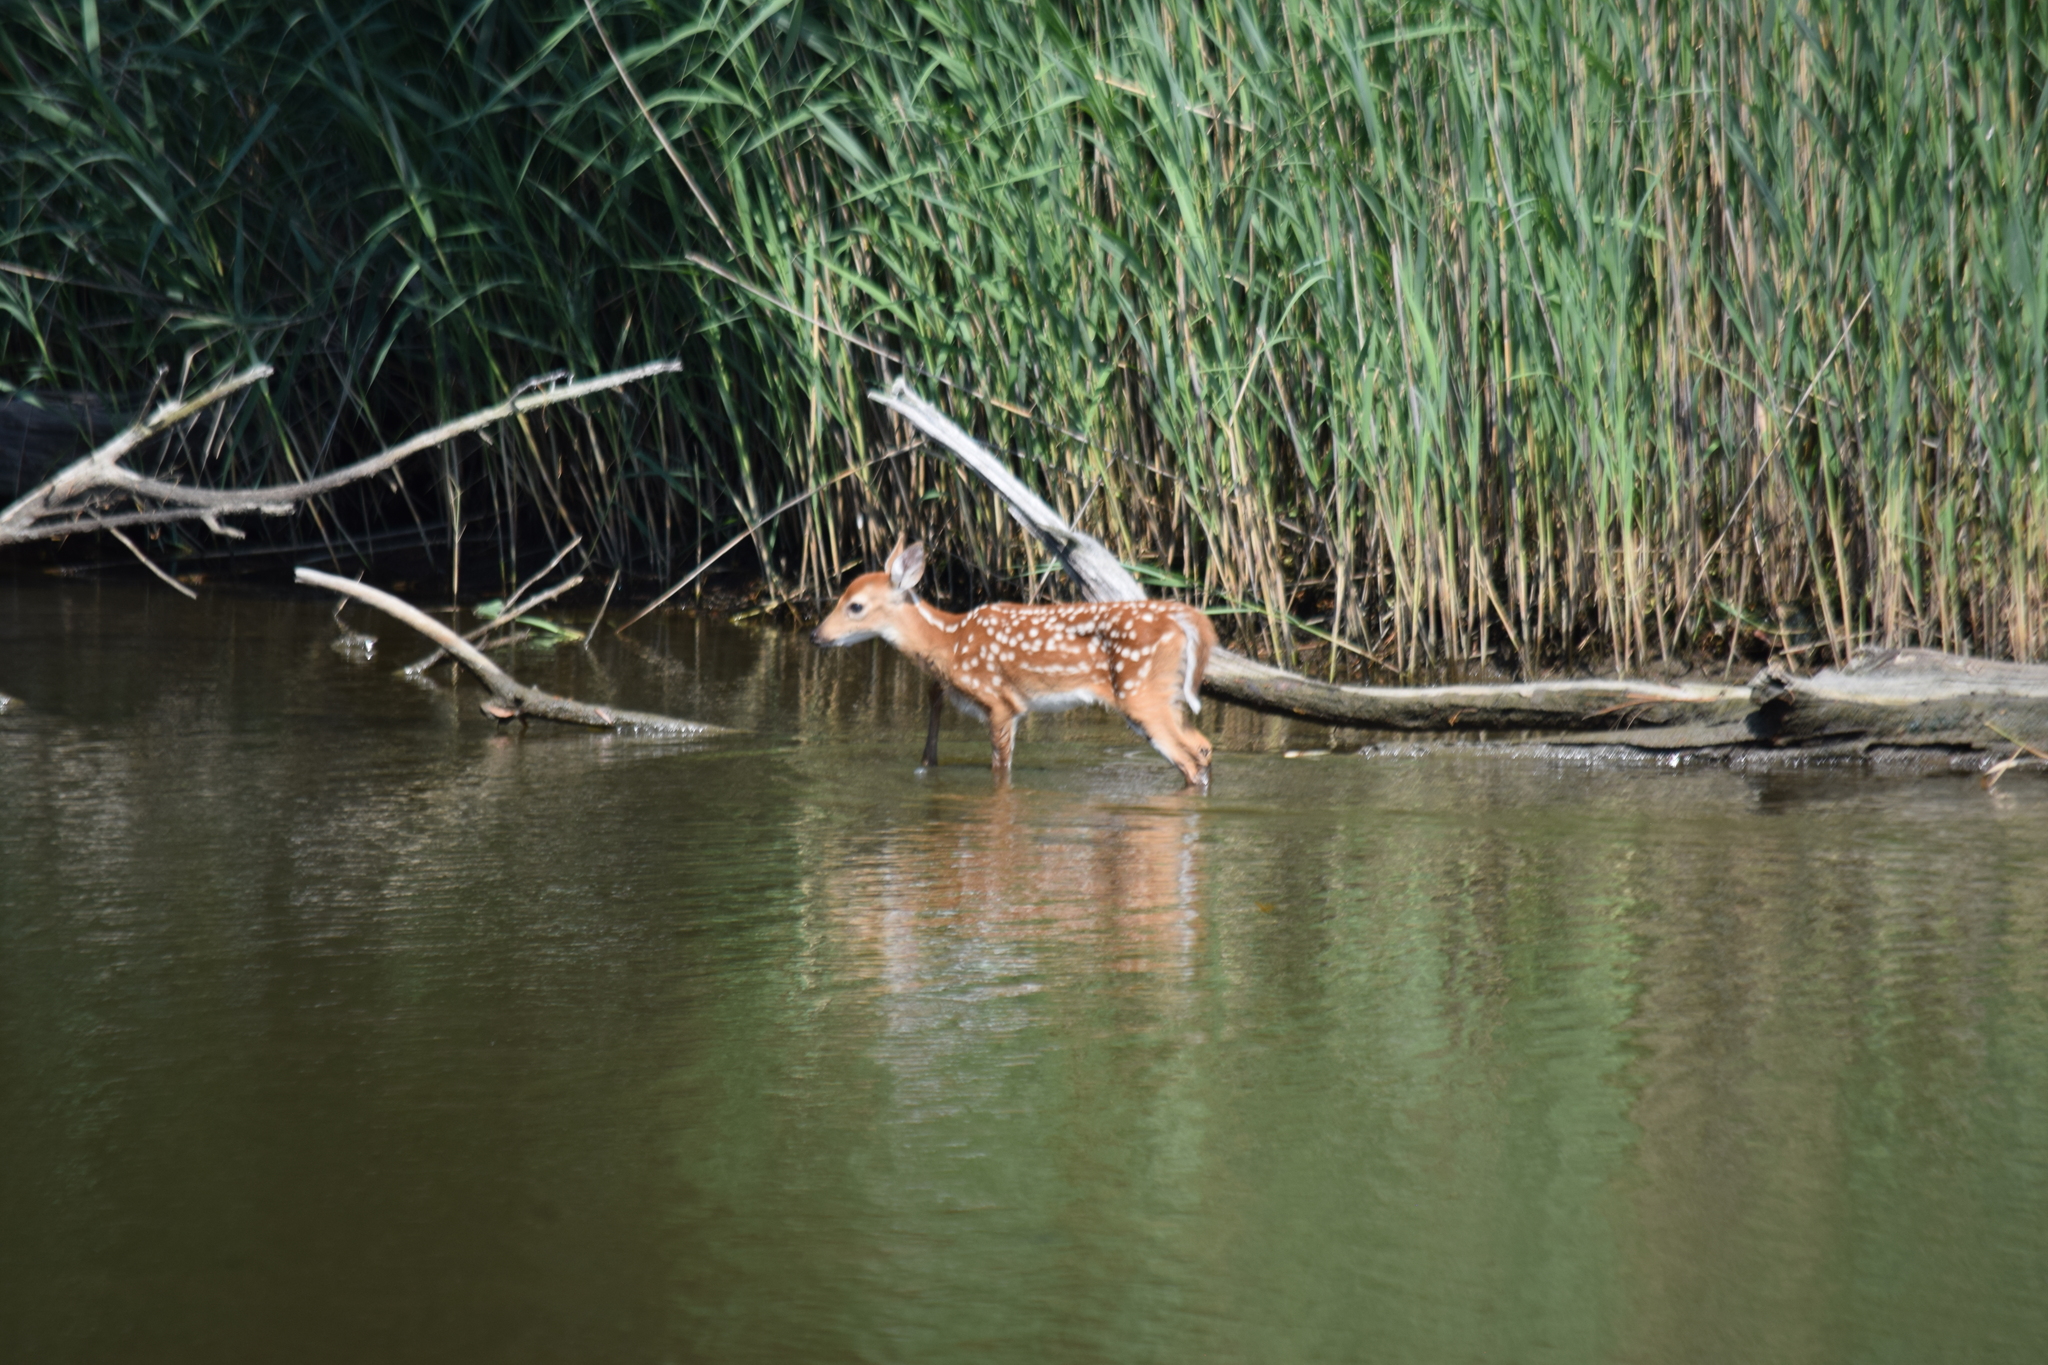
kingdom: Animalia
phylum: Chordata
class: Mammalia
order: Artiodactyla
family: Cervidae
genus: Odocoileus
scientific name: Odocoileus virginianus
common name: White-tailed deer
